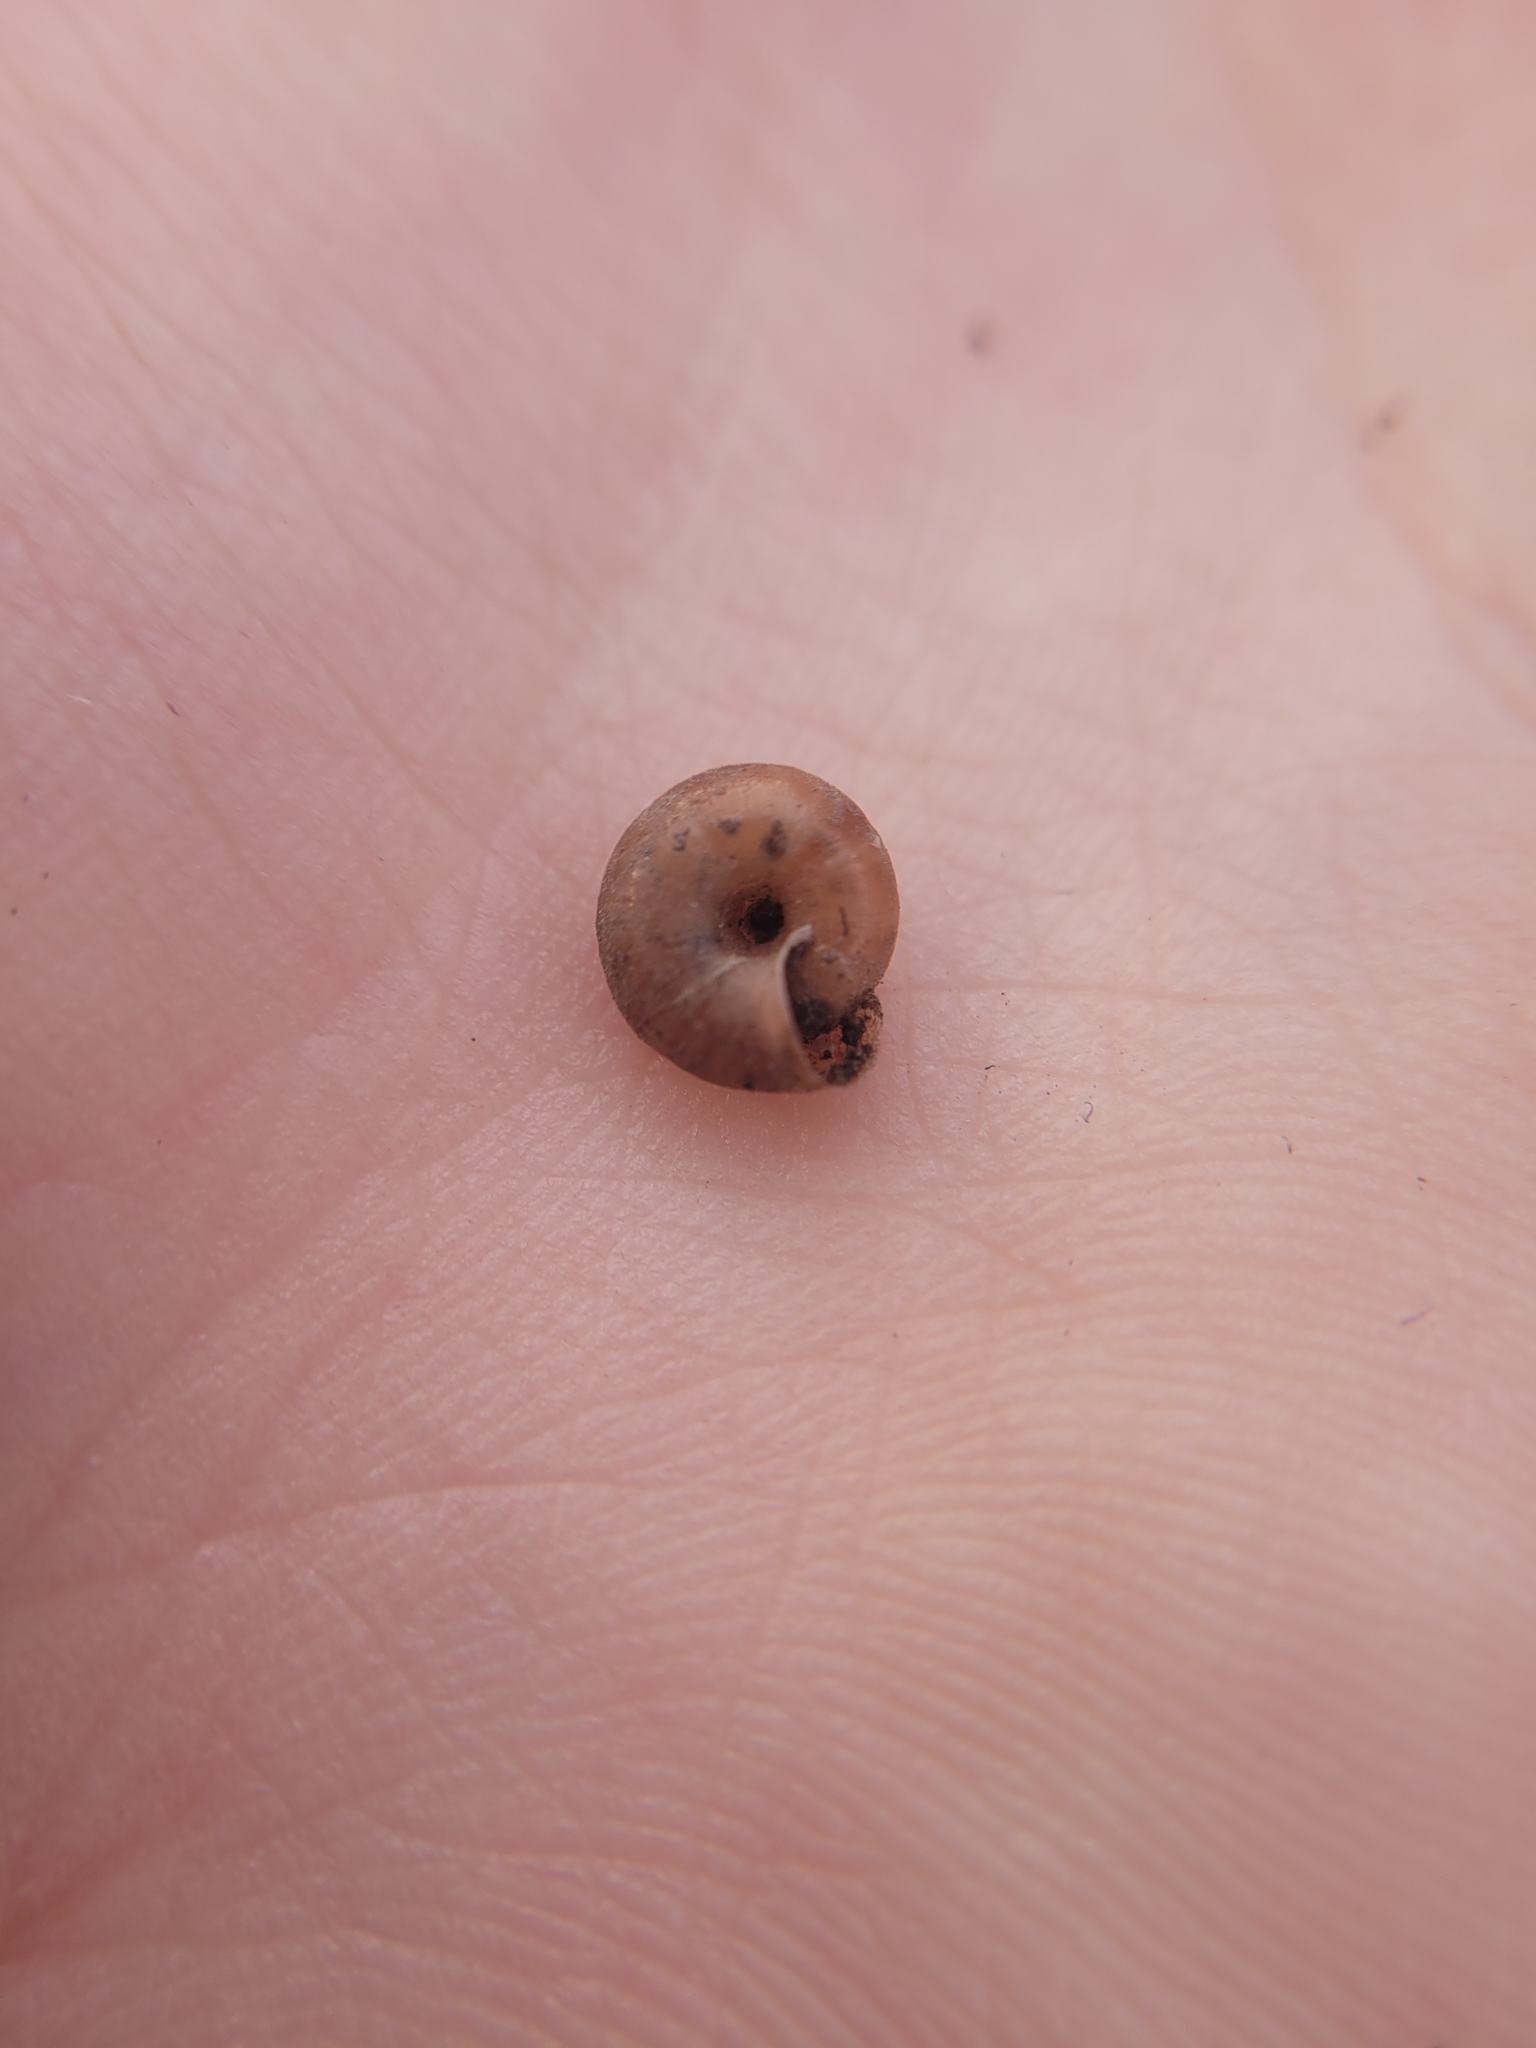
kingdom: Animalia
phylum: Mollusca
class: Gastropoda
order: Stylommatophora
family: Hygromiidae
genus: Trochulus
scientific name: Trochulus hispidus
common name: Hairy snail
